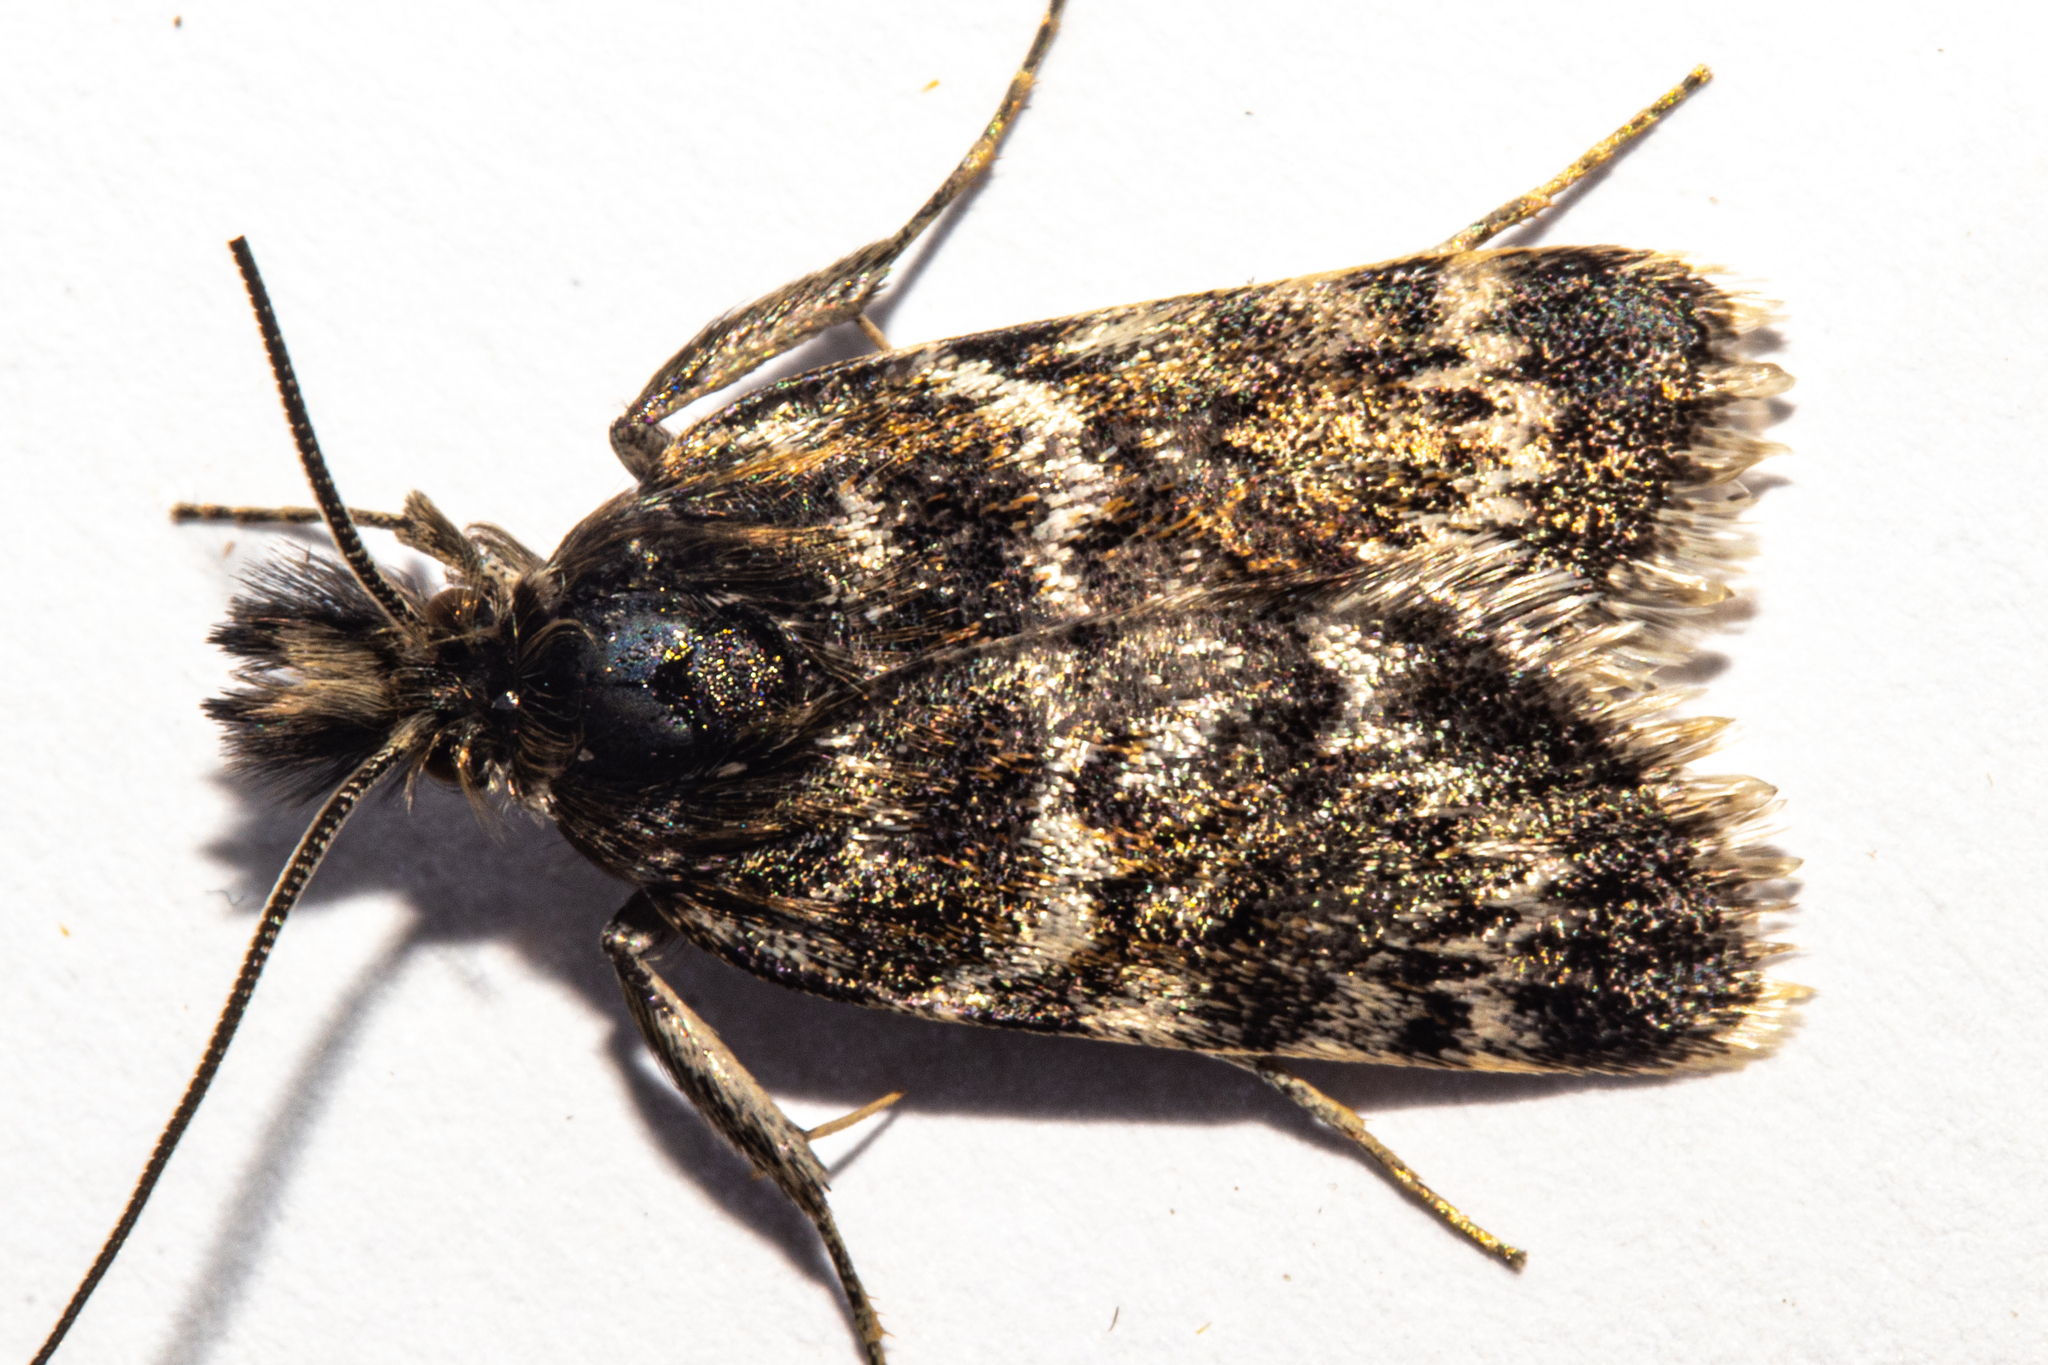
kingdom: Animalia
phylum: Arthropoda
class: Insecta
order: Lepidoptera
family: Crambidae
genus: Tauroscopa
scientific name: Tauroscopa gorgopis
